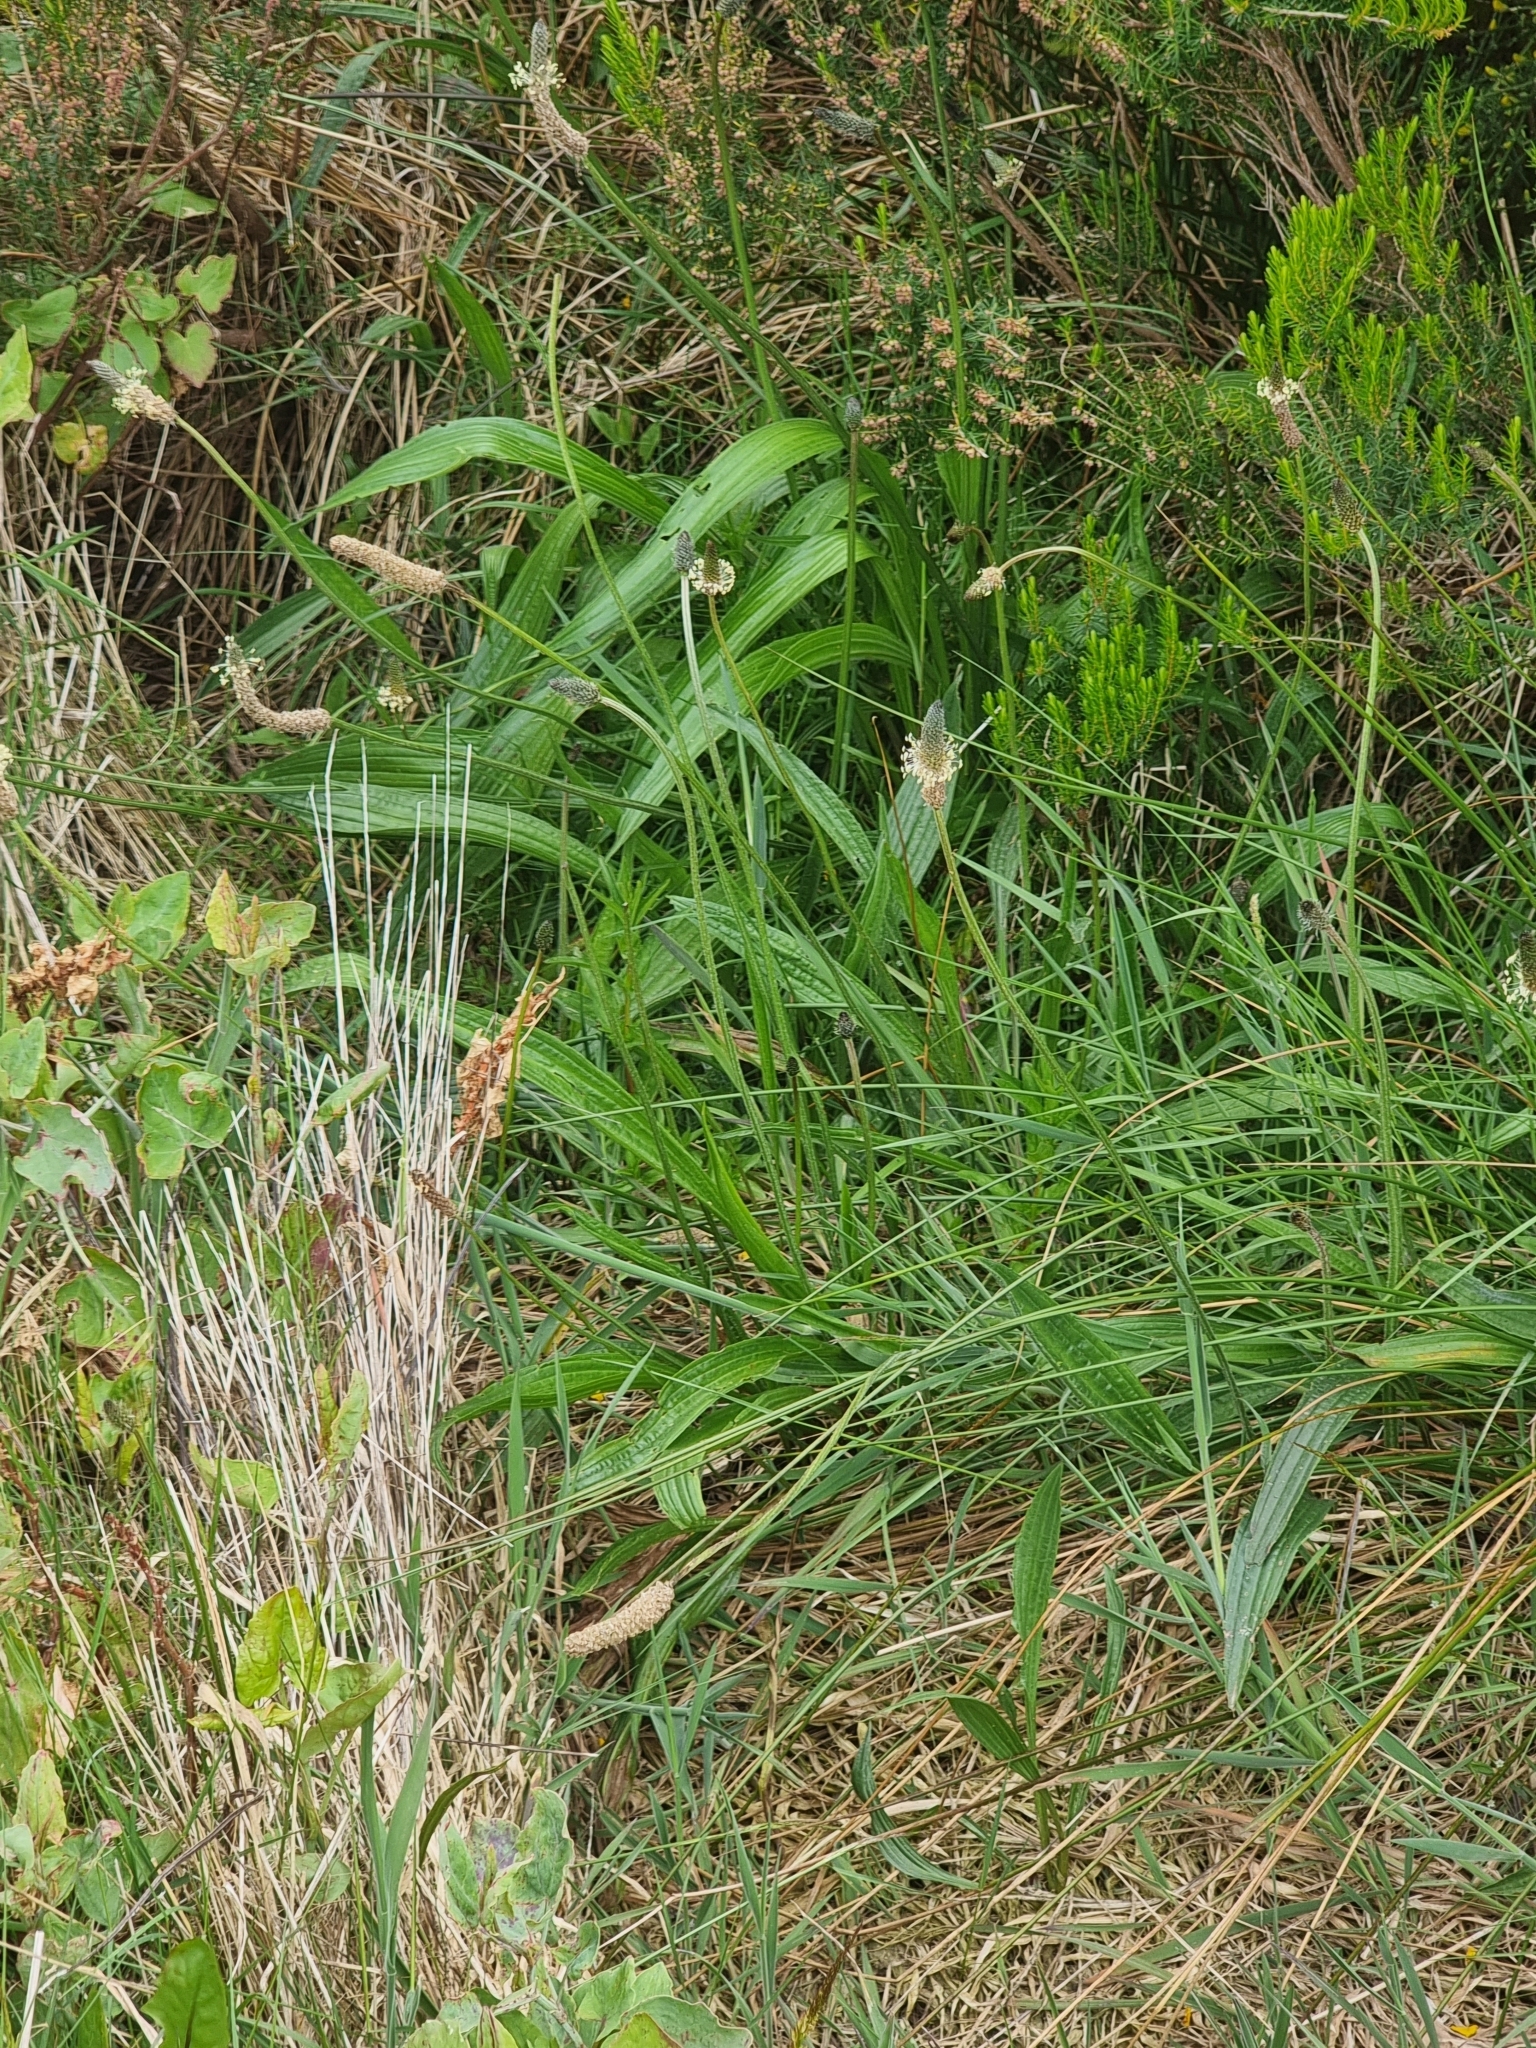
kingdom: Plantae
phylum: Tracheophyta
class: Magnoliopsida
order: Lamiales
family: Plantaginaceae
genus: Plantago
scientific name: Plantago lanceolata
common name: Ribwort plantain
